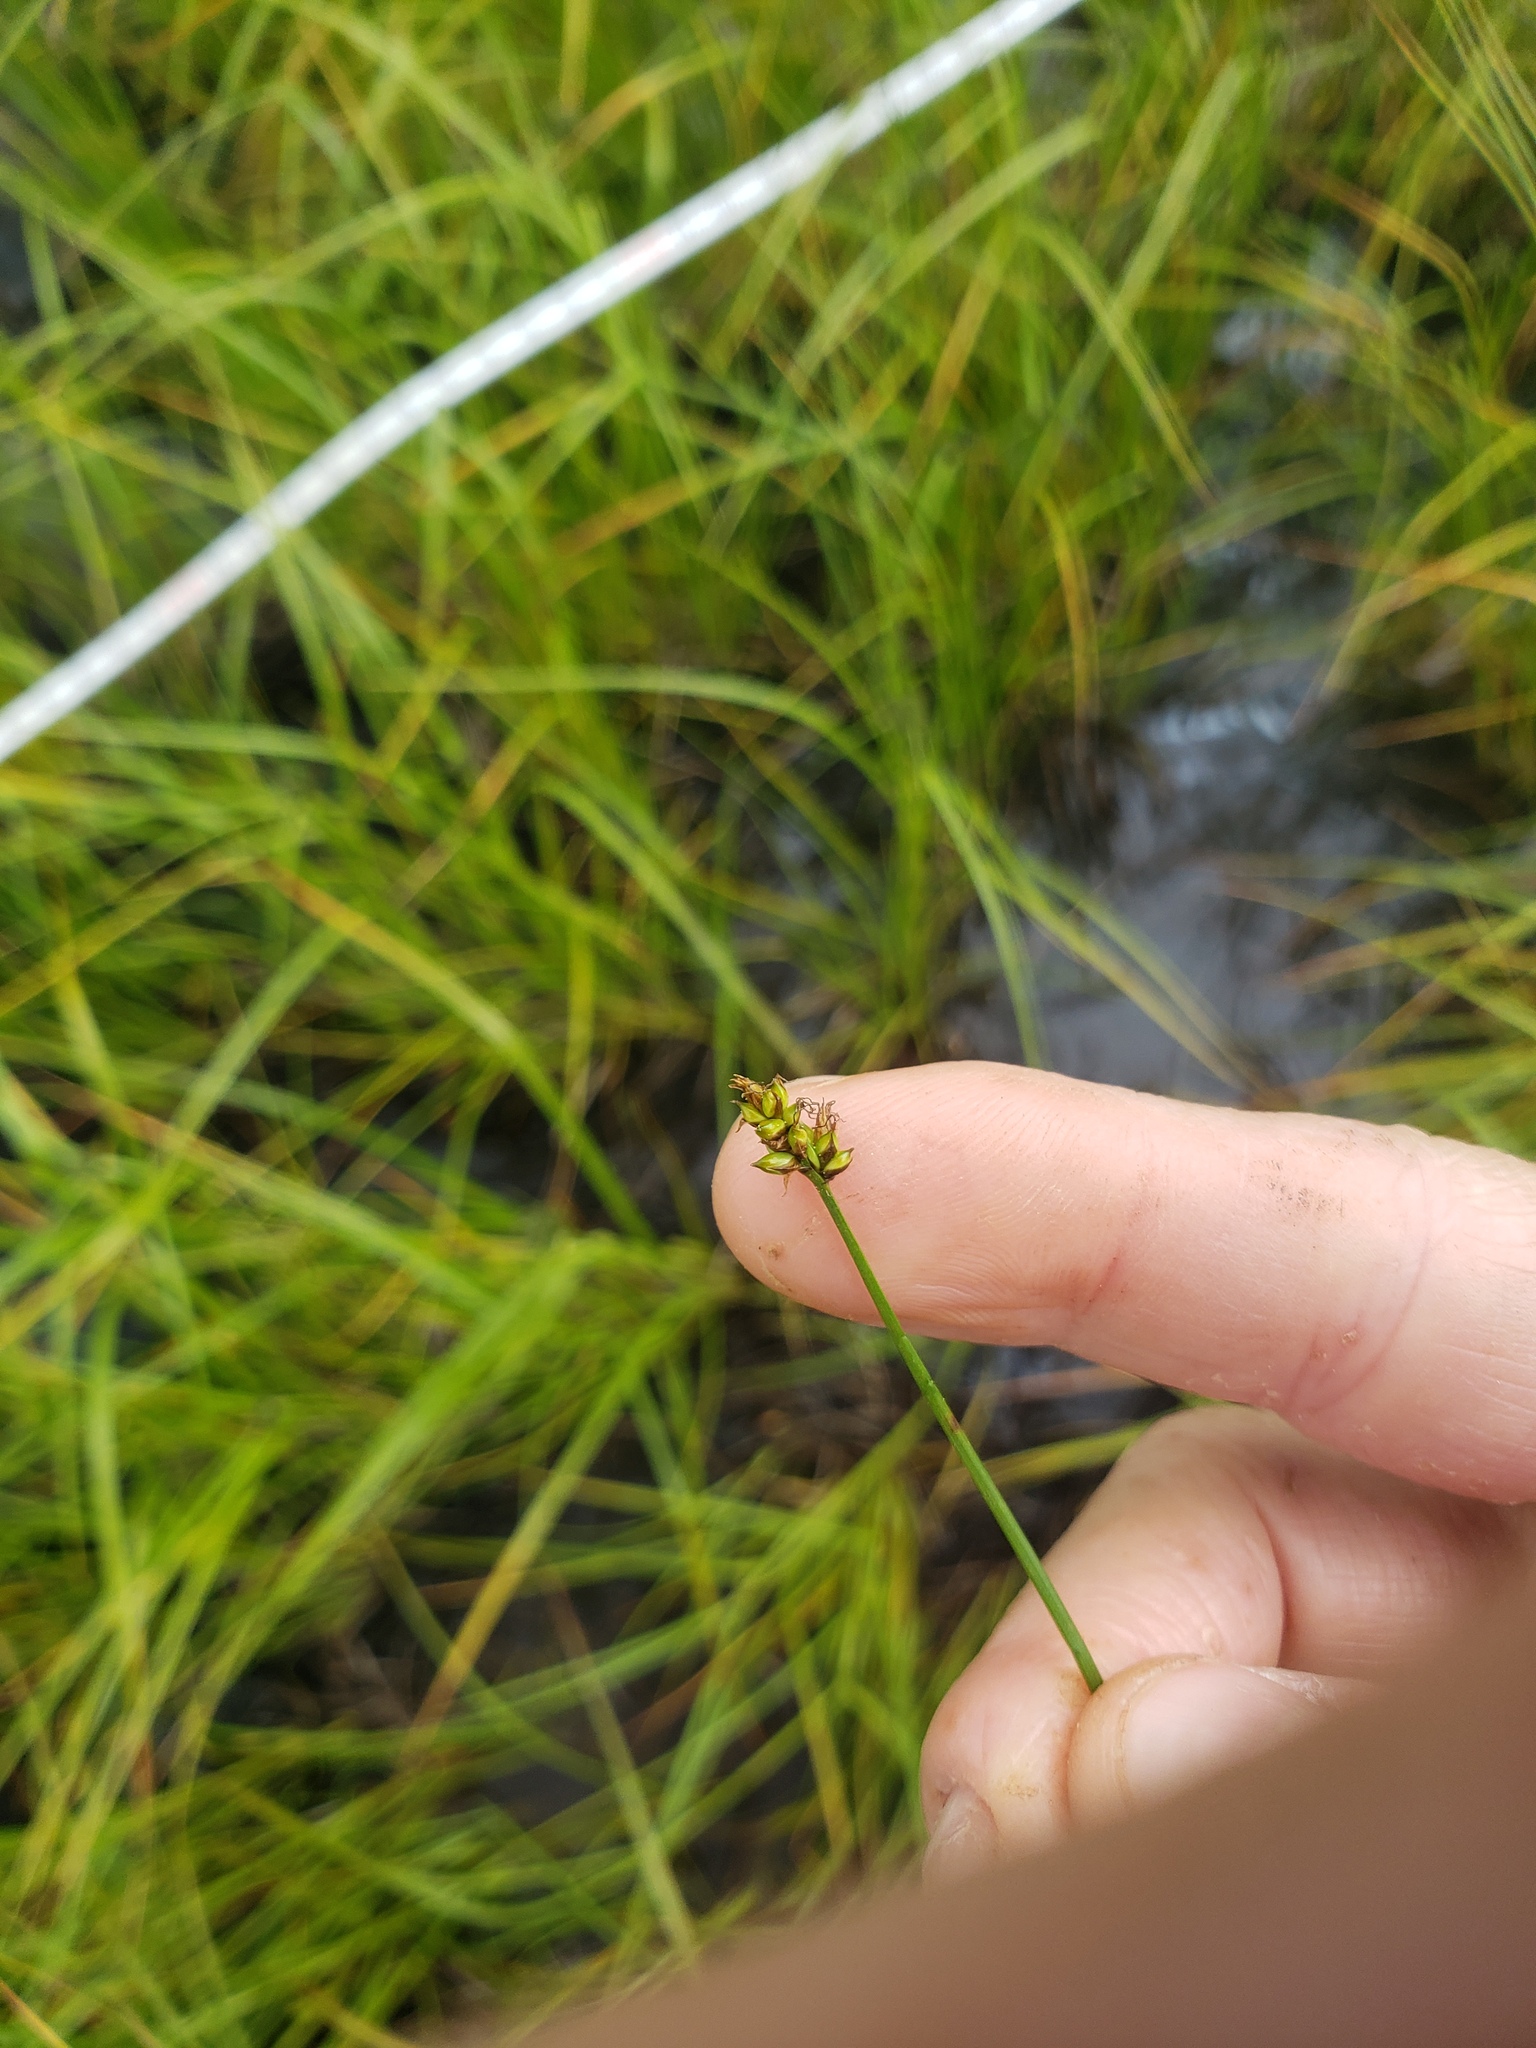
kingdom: Plantae
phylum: Tracheophyta
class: Liliopsida
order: Poales
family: Cyperaceae
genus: Carex
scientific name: Carex chordorrhiza
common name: String sedge
